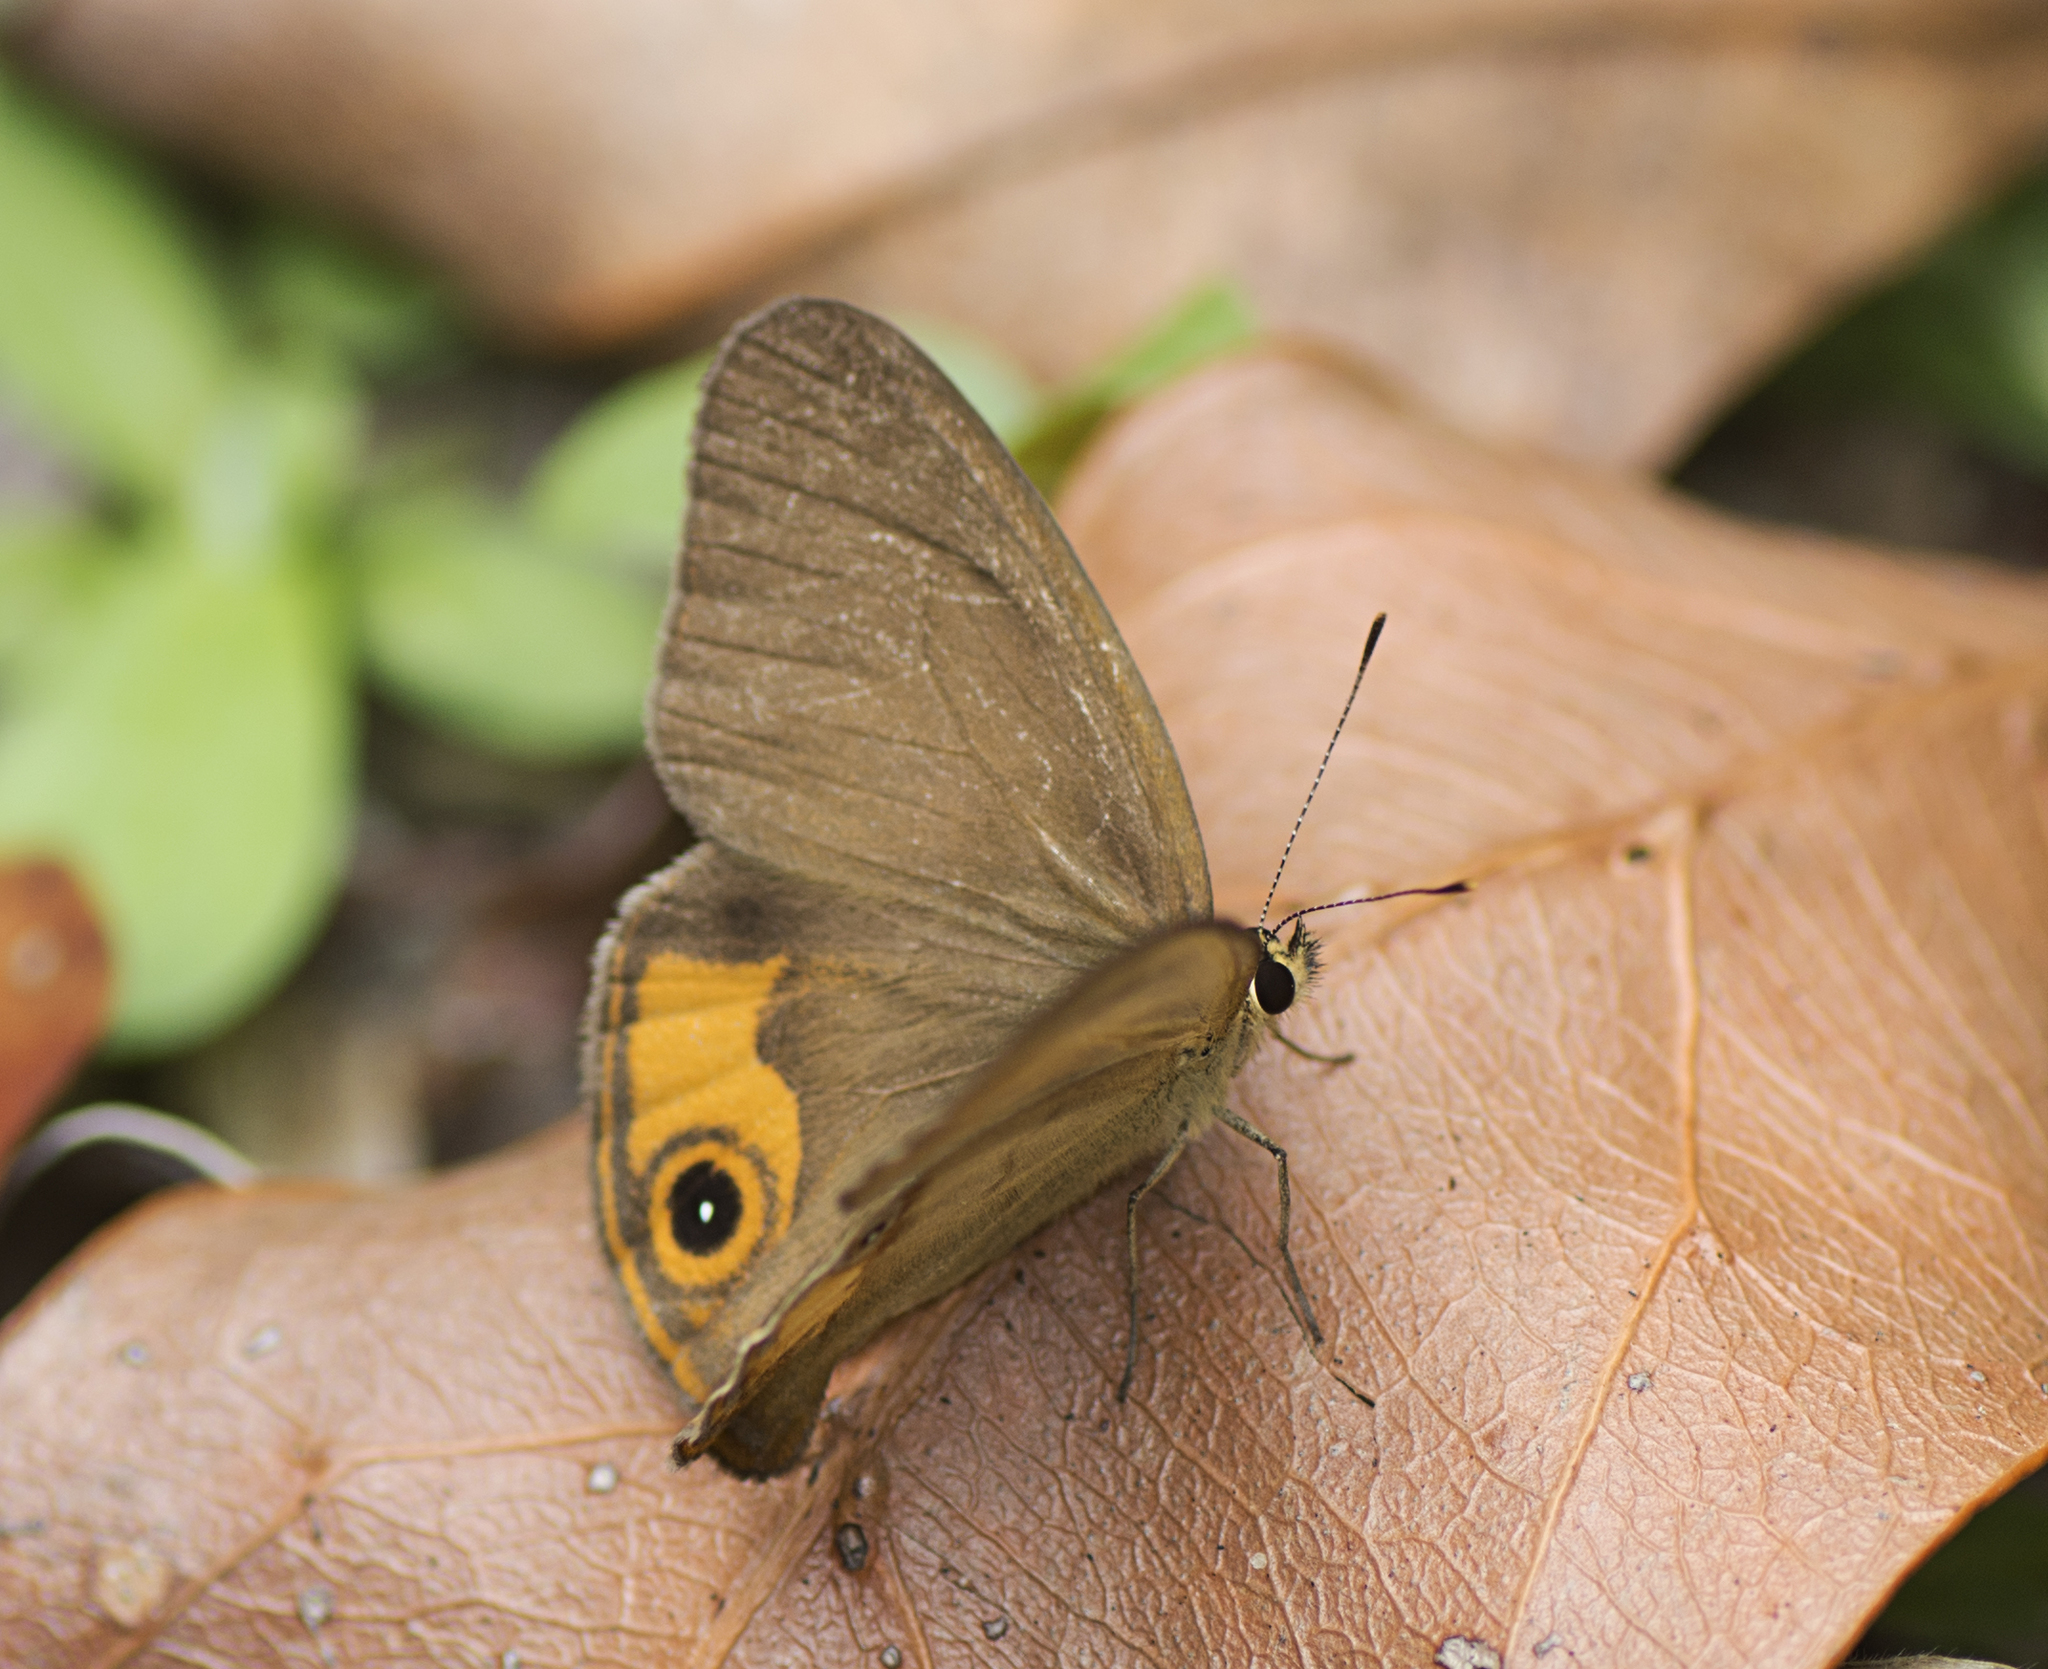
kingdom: Animalia
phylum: Arthropoda
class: Insecta
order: Lepidoptera
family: Nymphalidae
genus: Hypocysta
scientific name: Hypocysta metirius
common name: Brown ringlet
